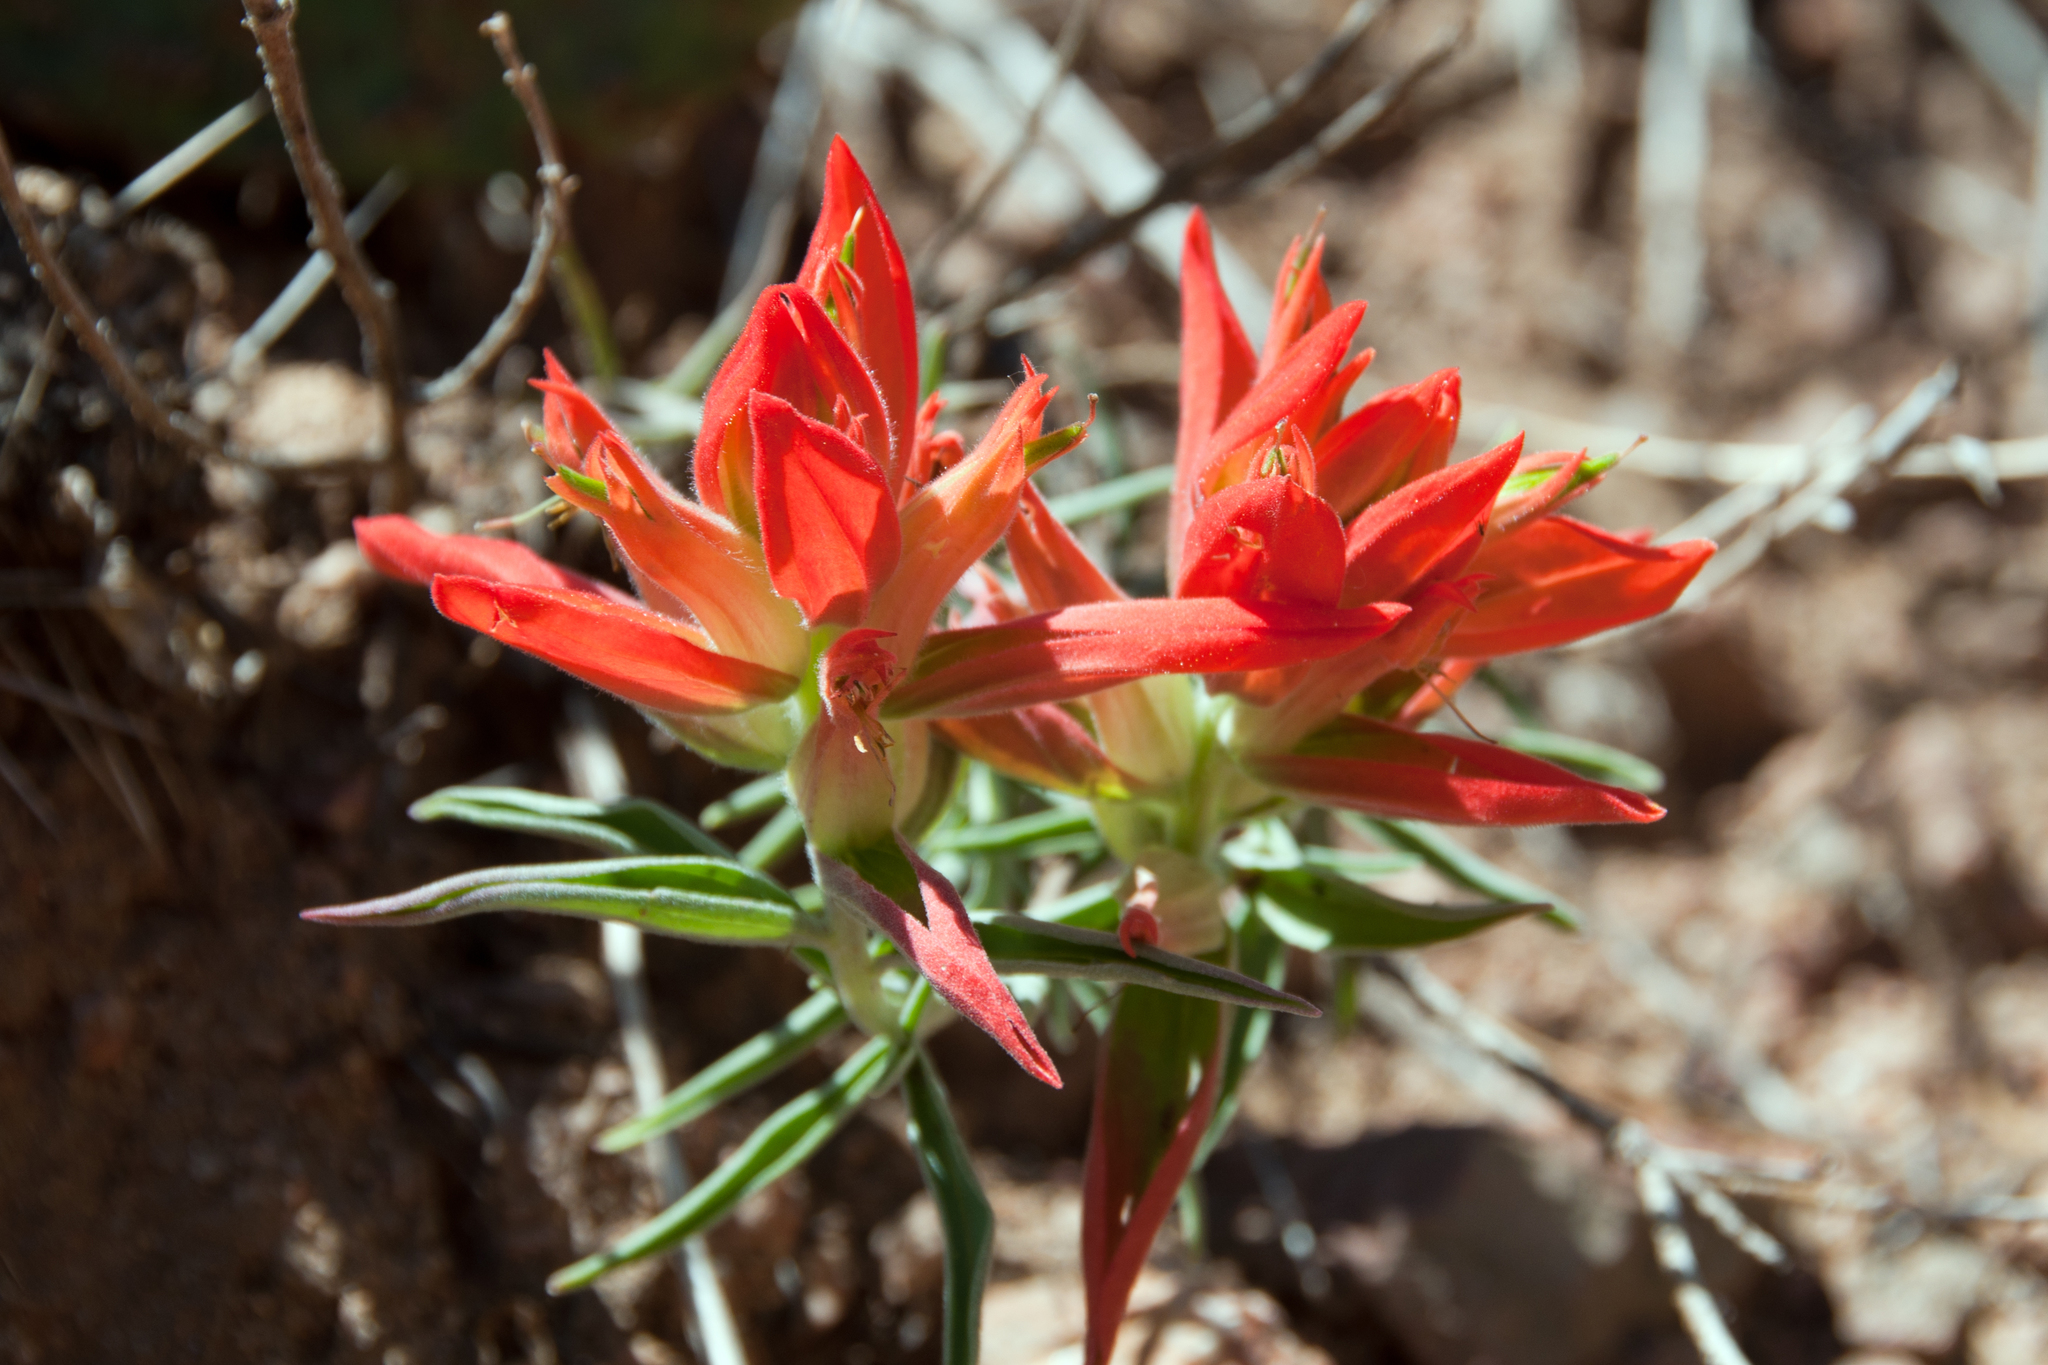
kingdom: Plantae
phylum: Tracheophyta
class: Magnoliopsida
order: Lamiales
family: Orobanchaceae
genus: Castilleja
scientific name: Castilleja integra
